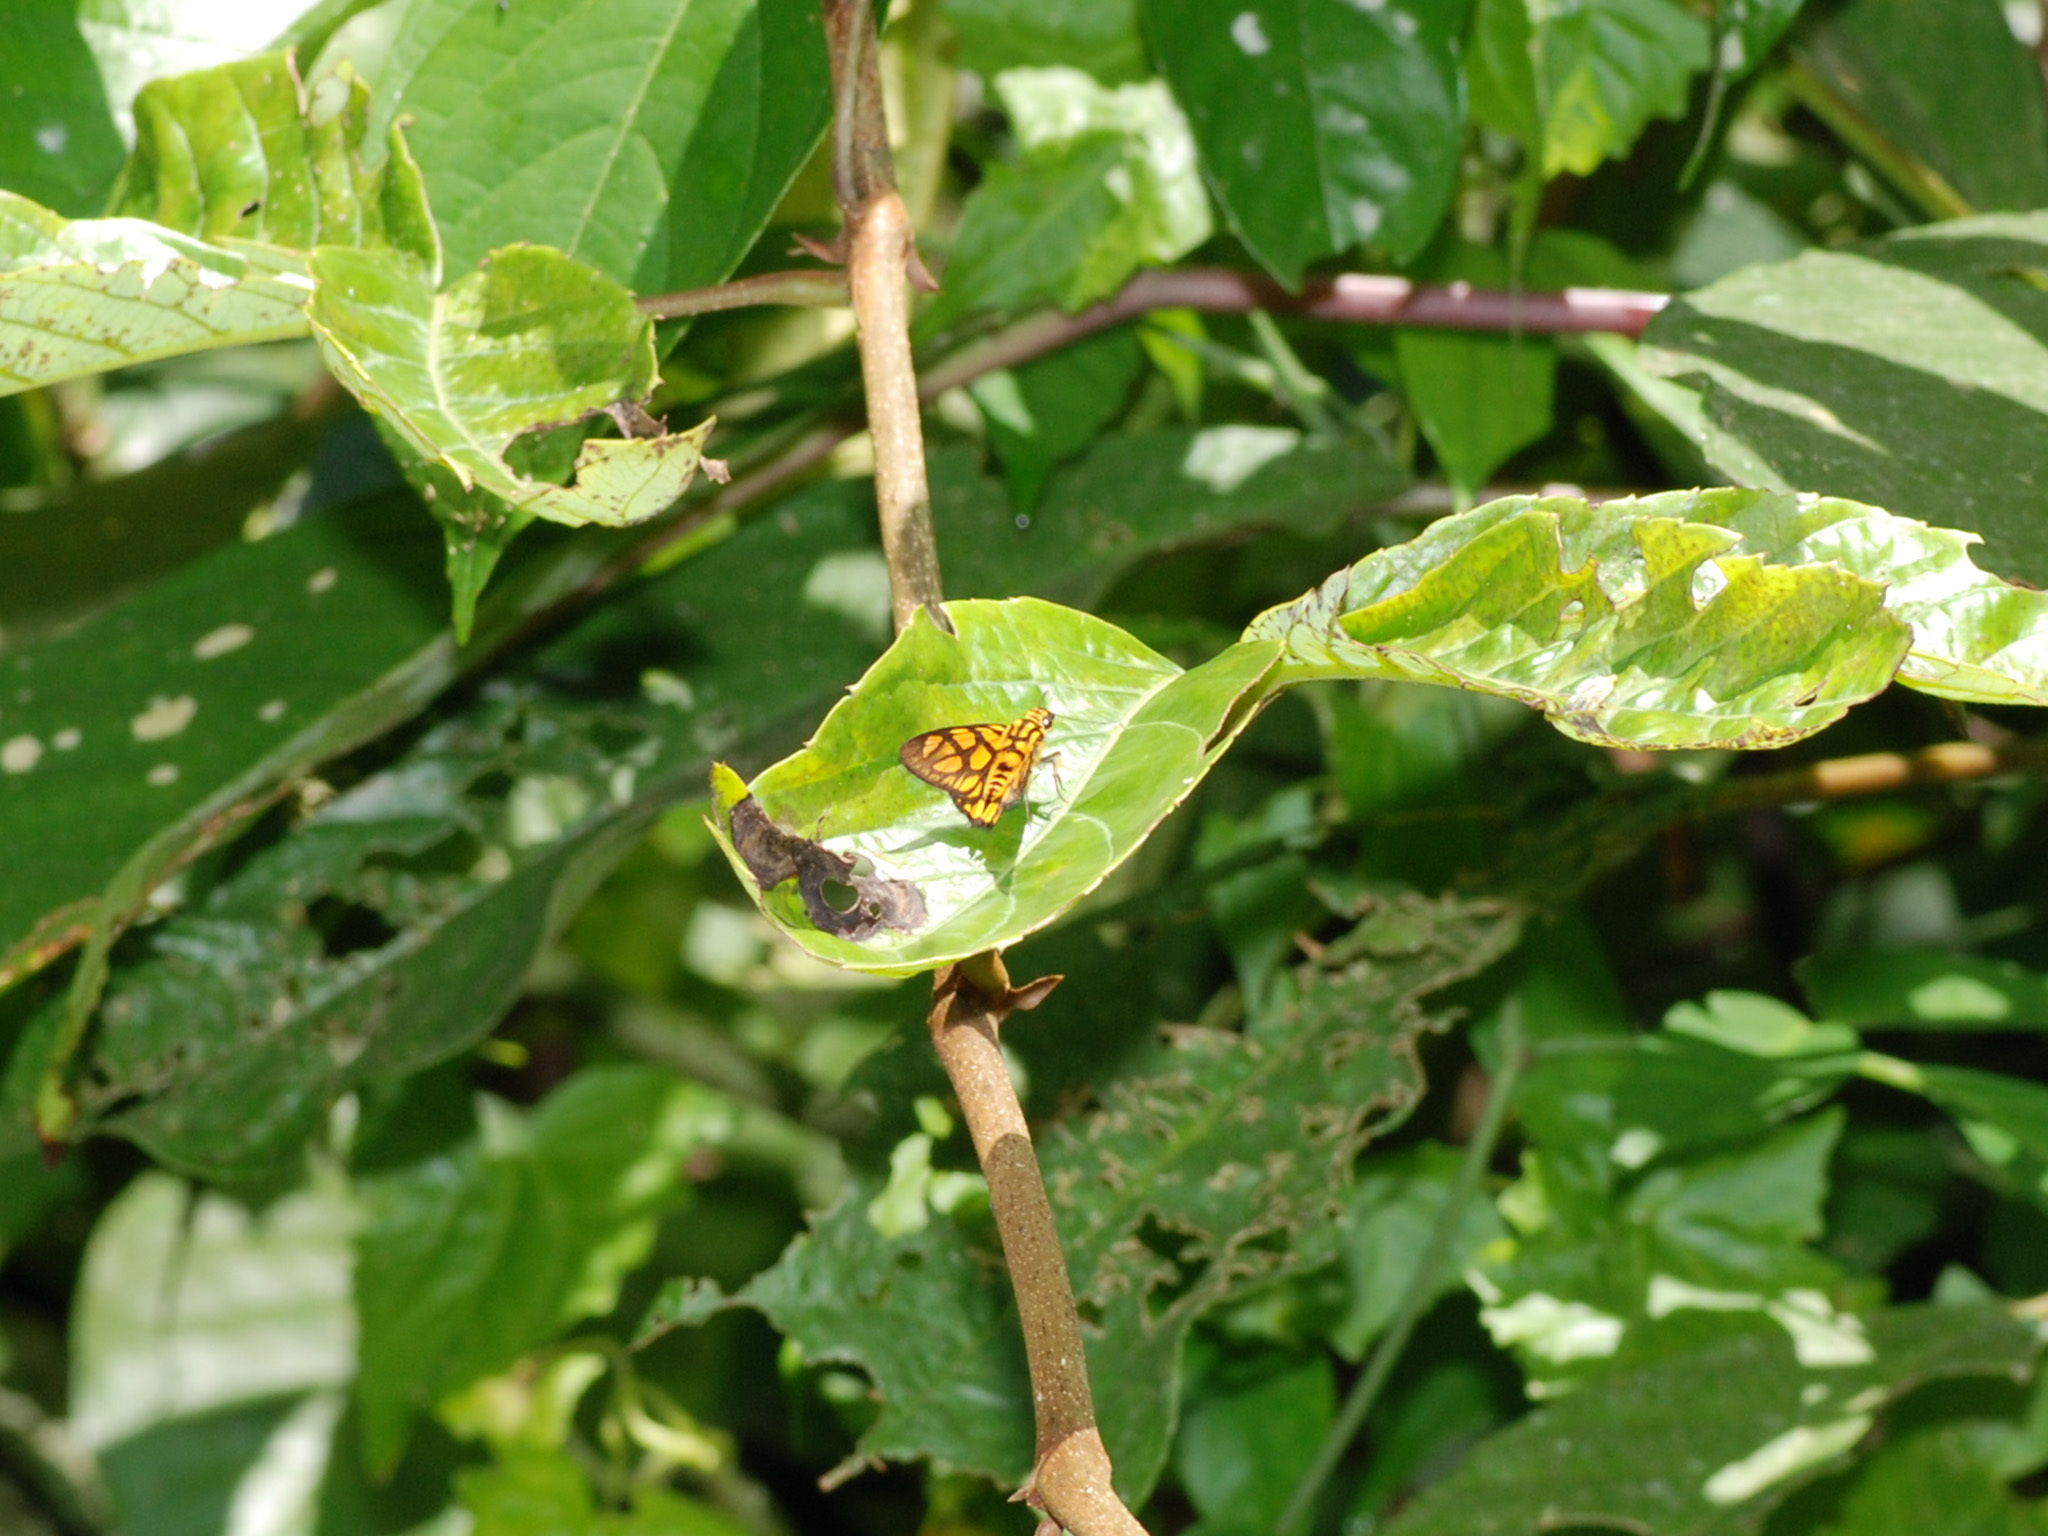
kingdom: Animalia
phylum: Arthropoda
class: Insecta
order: Lepidoptera
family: Hesperiidae
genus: Odina
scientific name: Odina hieroglyphica
